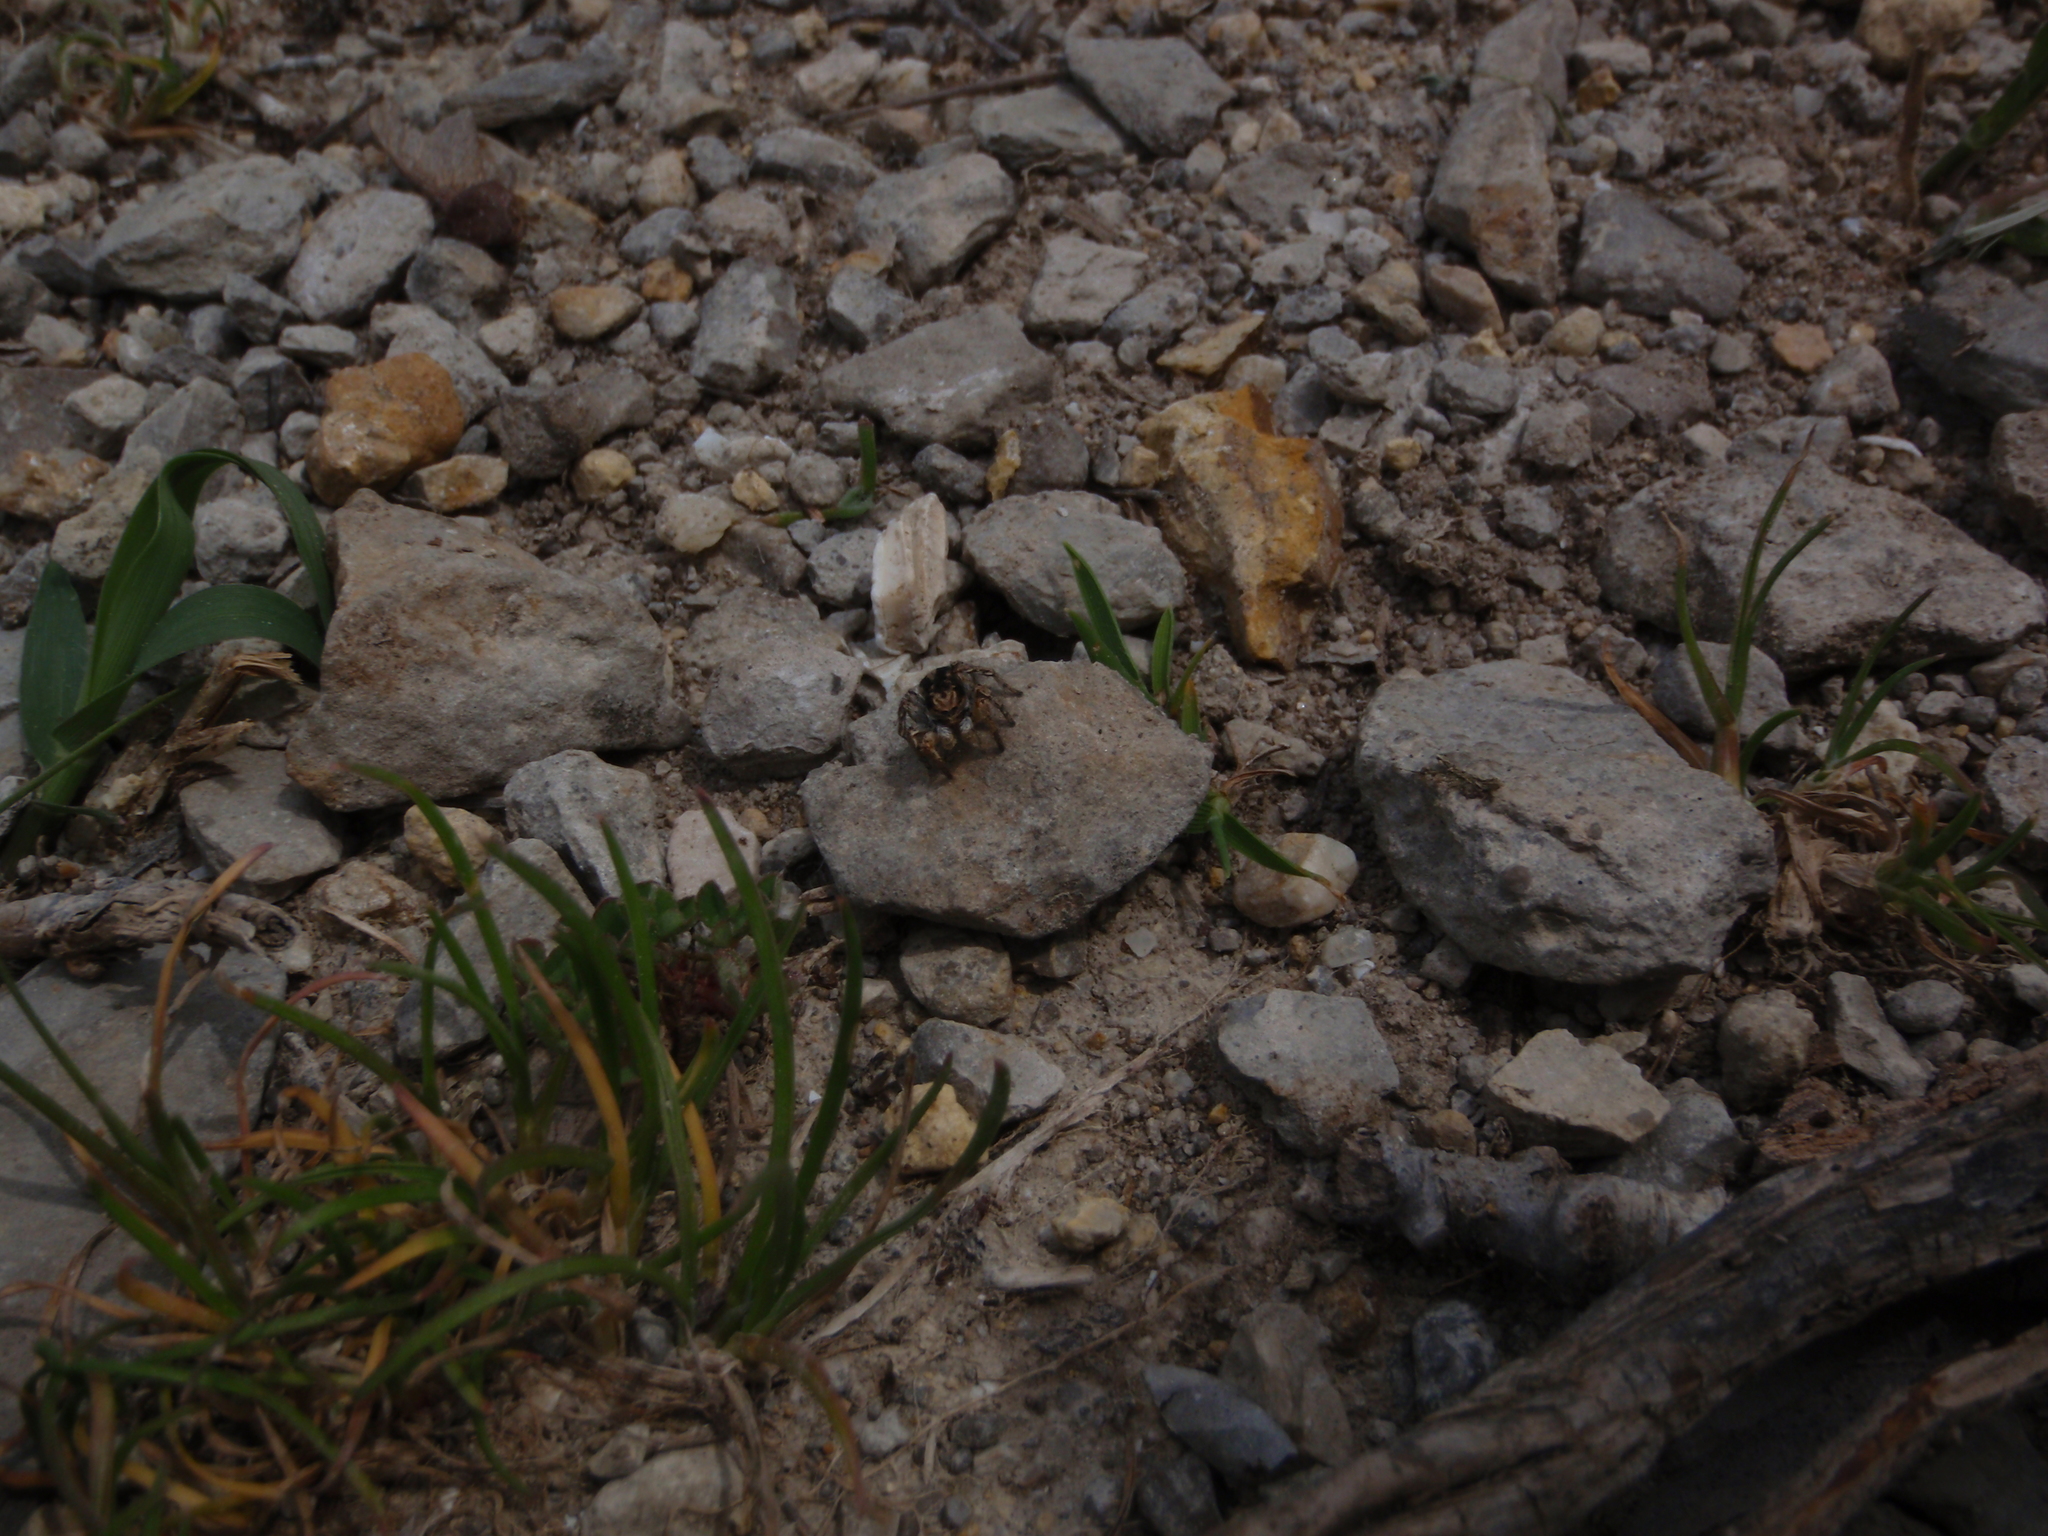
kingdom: Animalia
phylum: Arthropoda
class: Arachnida
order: Araneae
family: Salticidae
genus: Aelurillus
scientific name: Aelurillus v-insignitus
